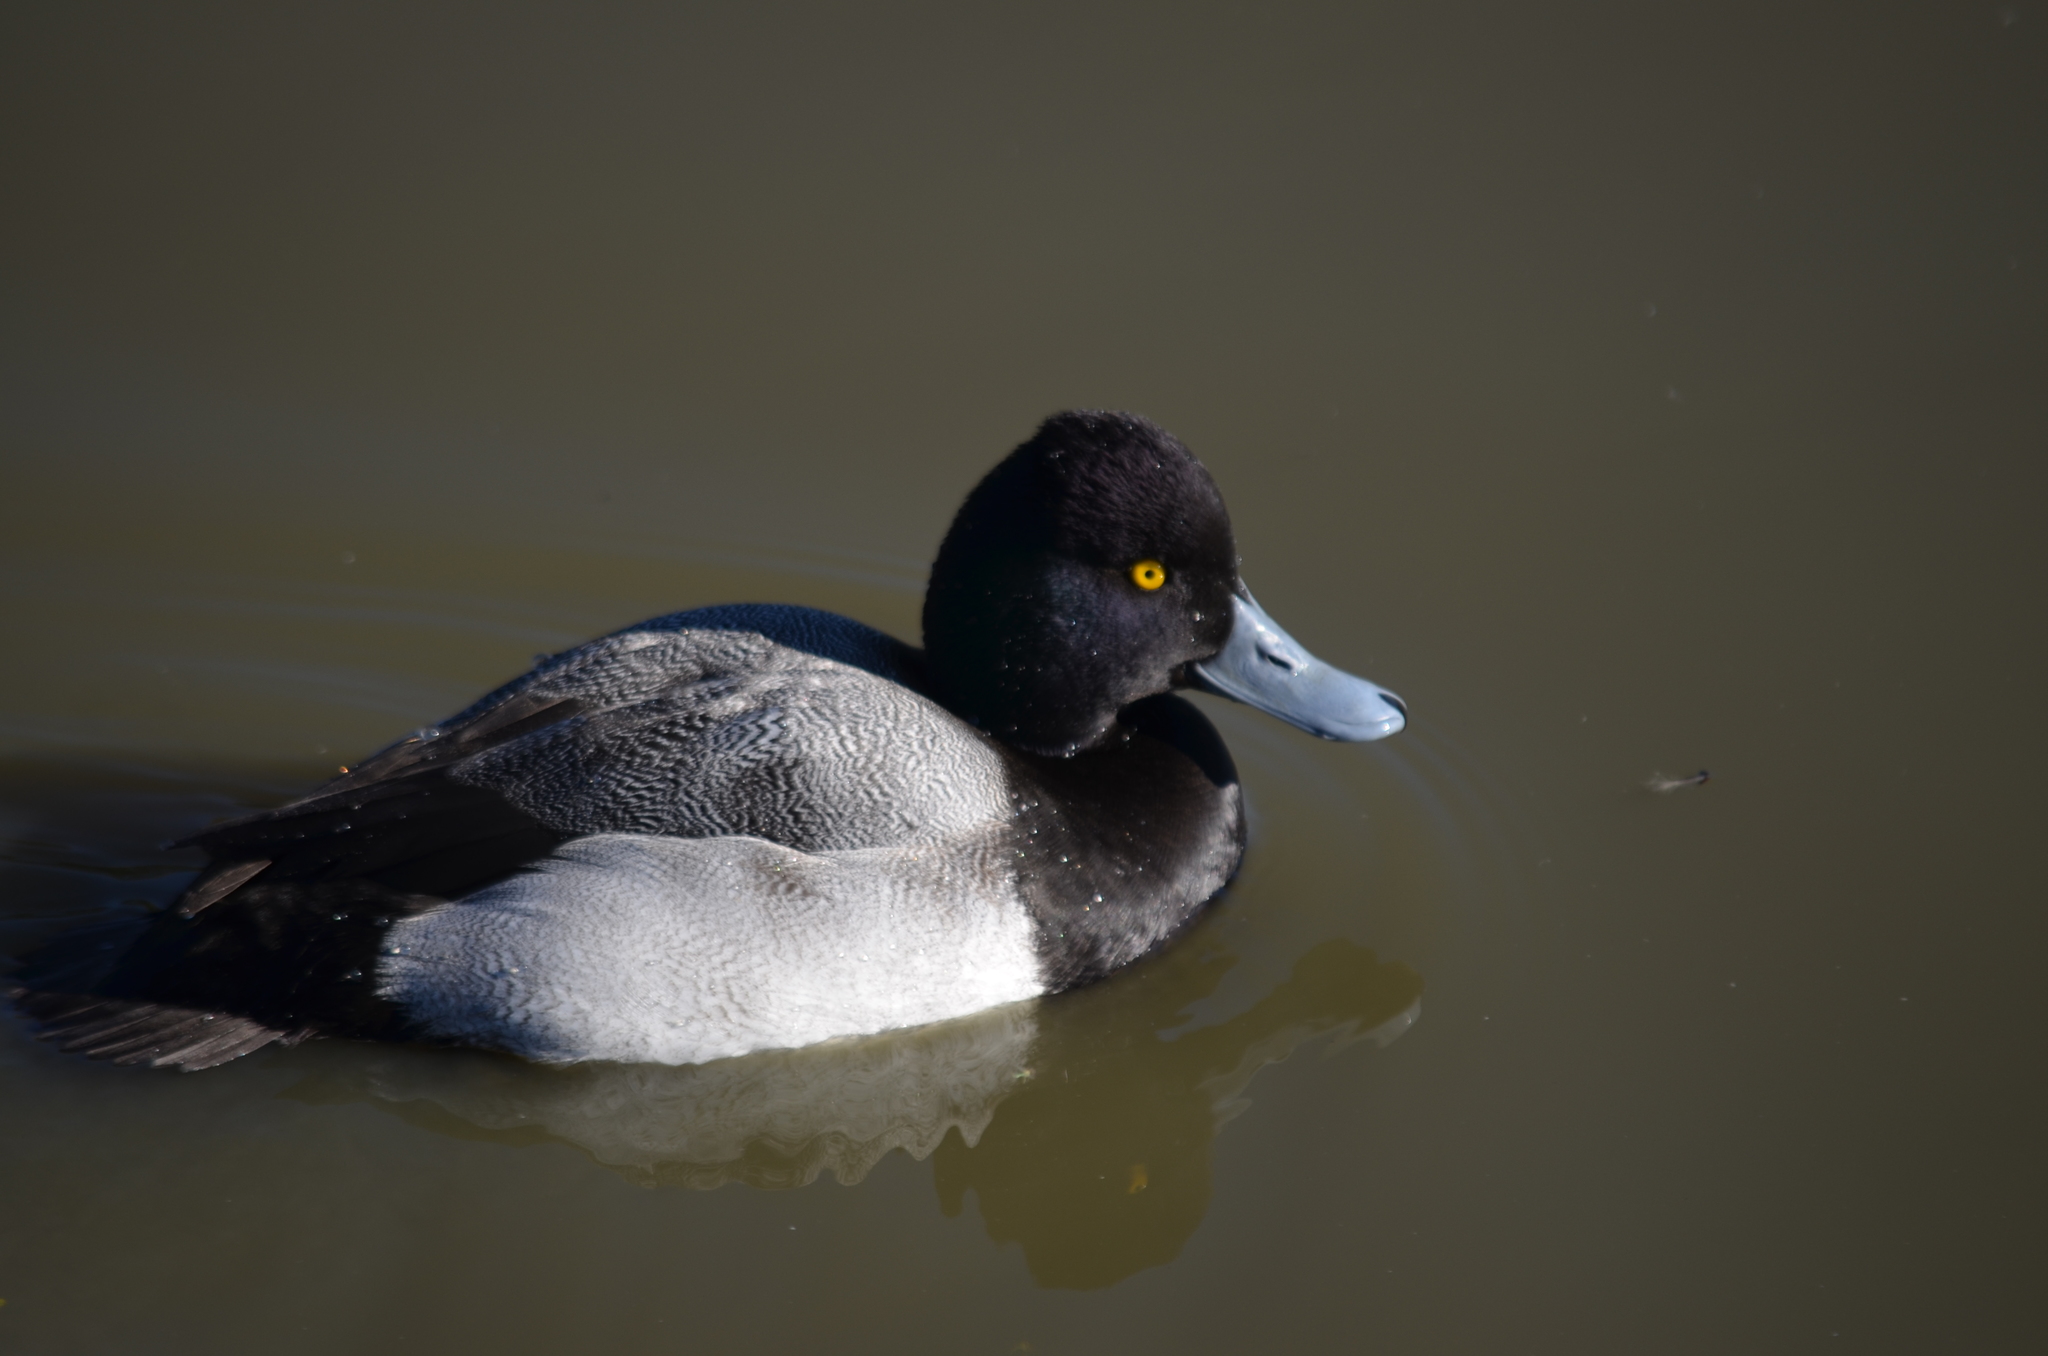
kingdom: Animalia
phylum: Chordata
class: Aves
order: Anseriformes
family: Anatidae
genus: Aythya
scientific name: Aythya affinis
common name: Lesser scaup
